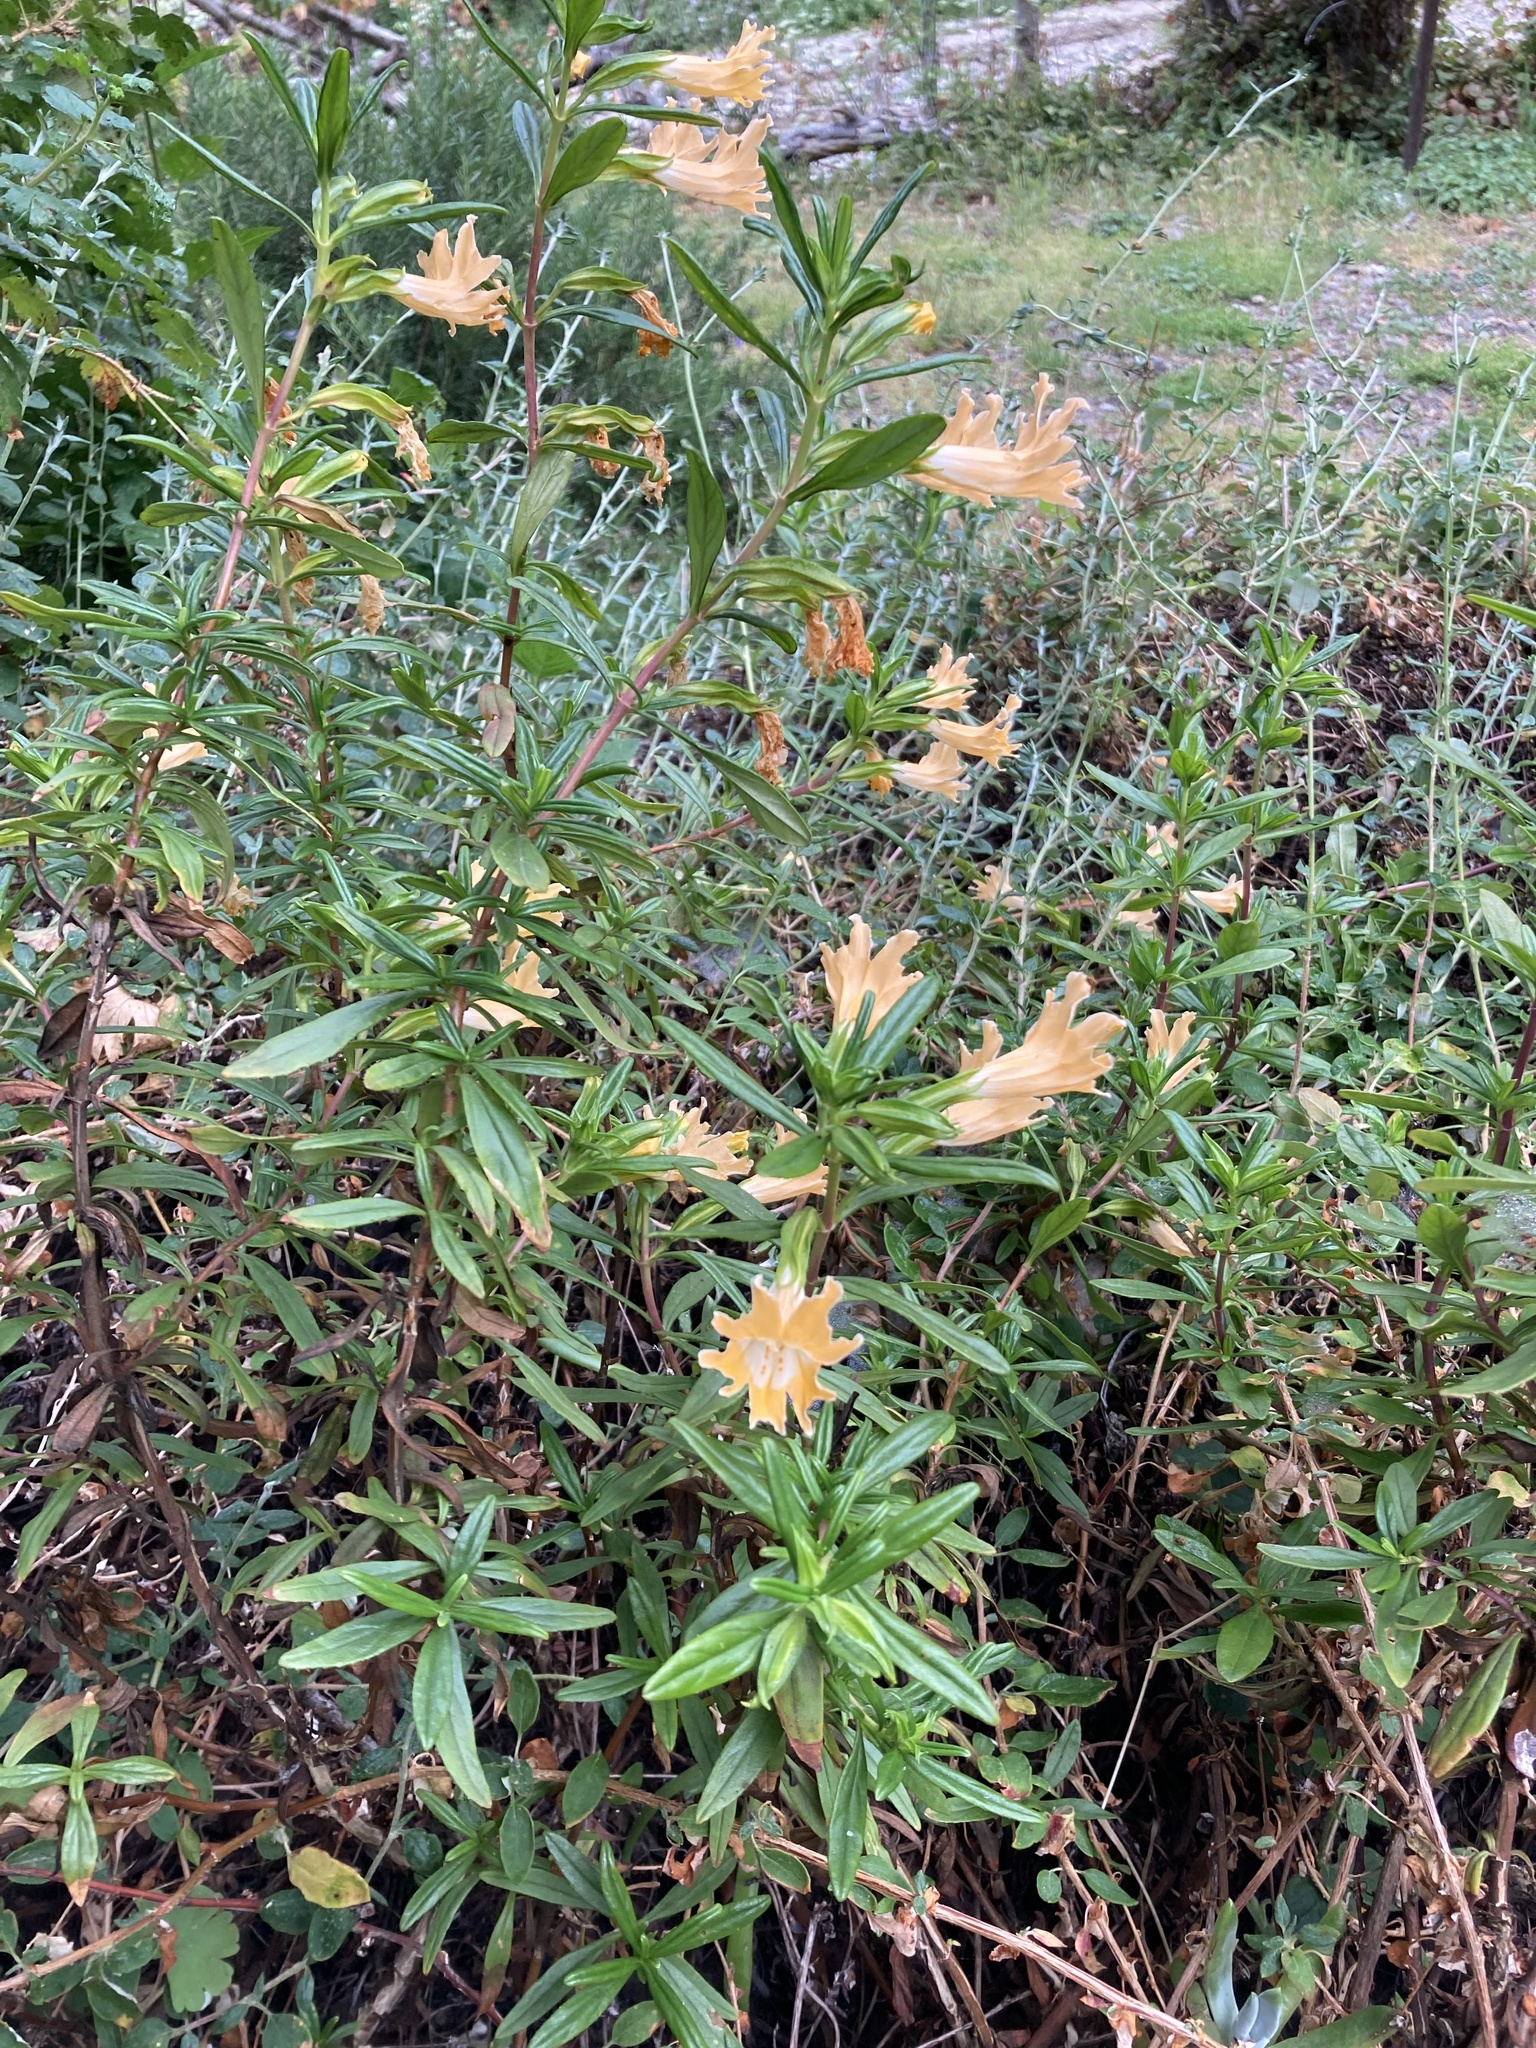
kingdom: Plantae
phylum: Tracheophyta
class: Magnoliopsida
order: Lamiales
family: Phrymaceae
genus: Diplacus
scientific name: Diplacus linearis
